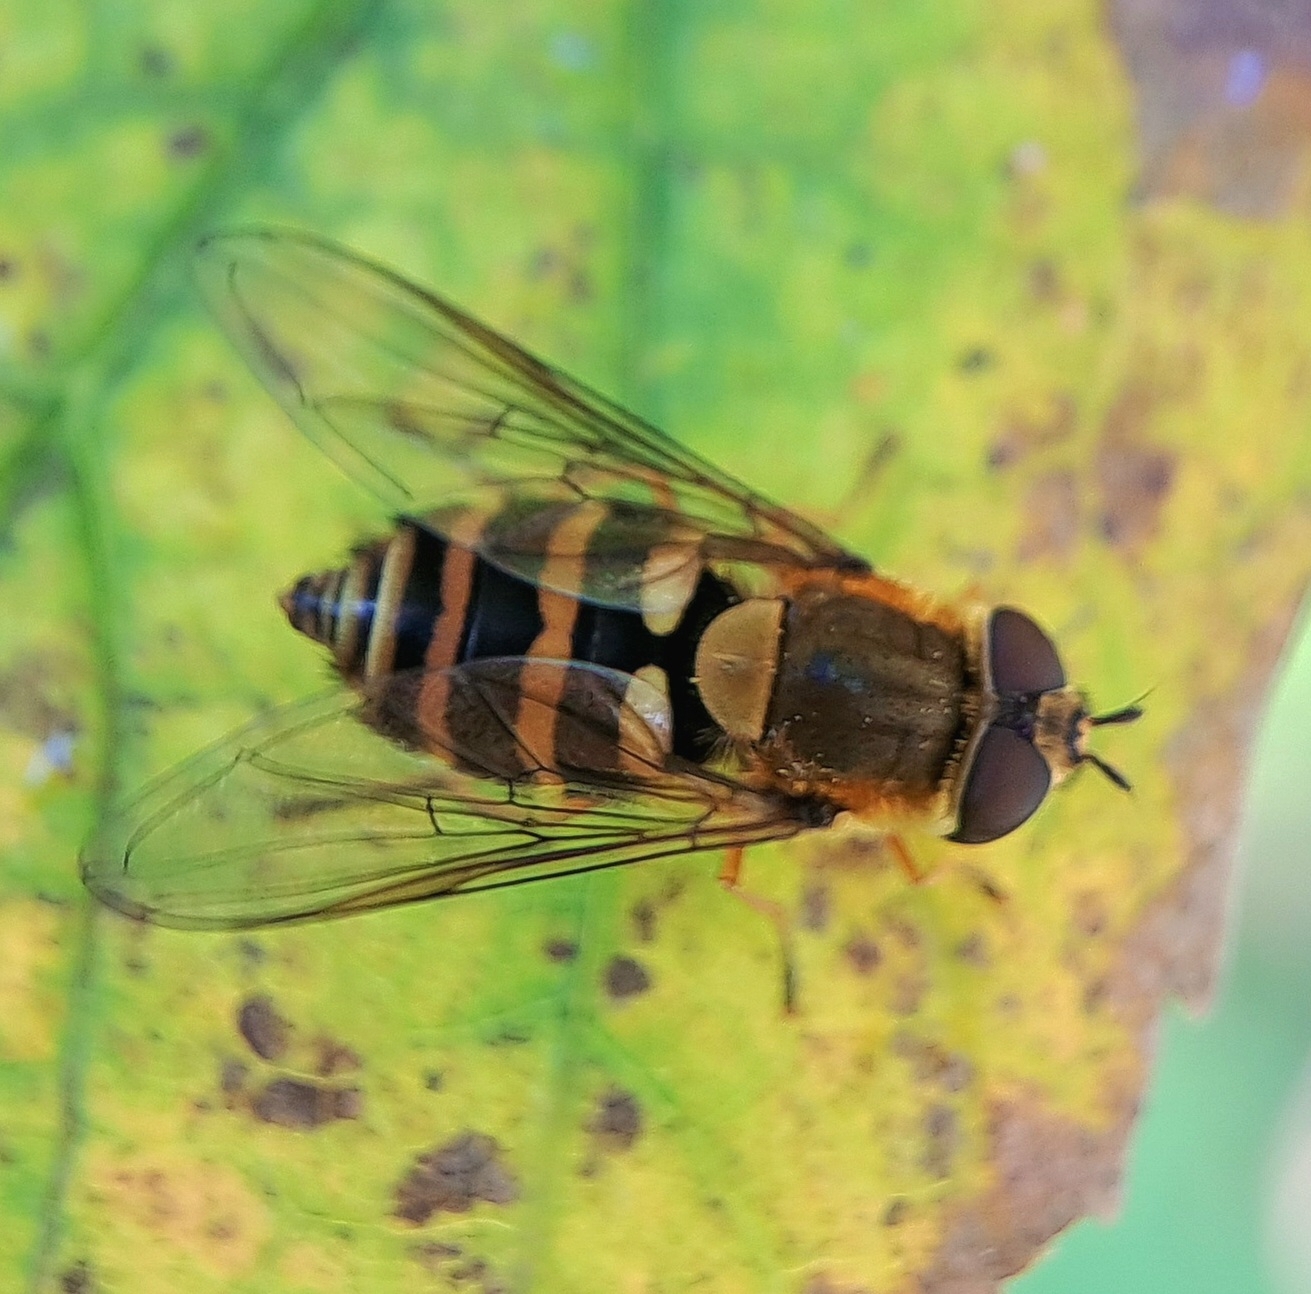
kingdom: Animalia
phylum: Arthropoda
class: Insecta
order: Diptera
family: Syrphidae
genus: Syrphus
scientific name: Syrphus
